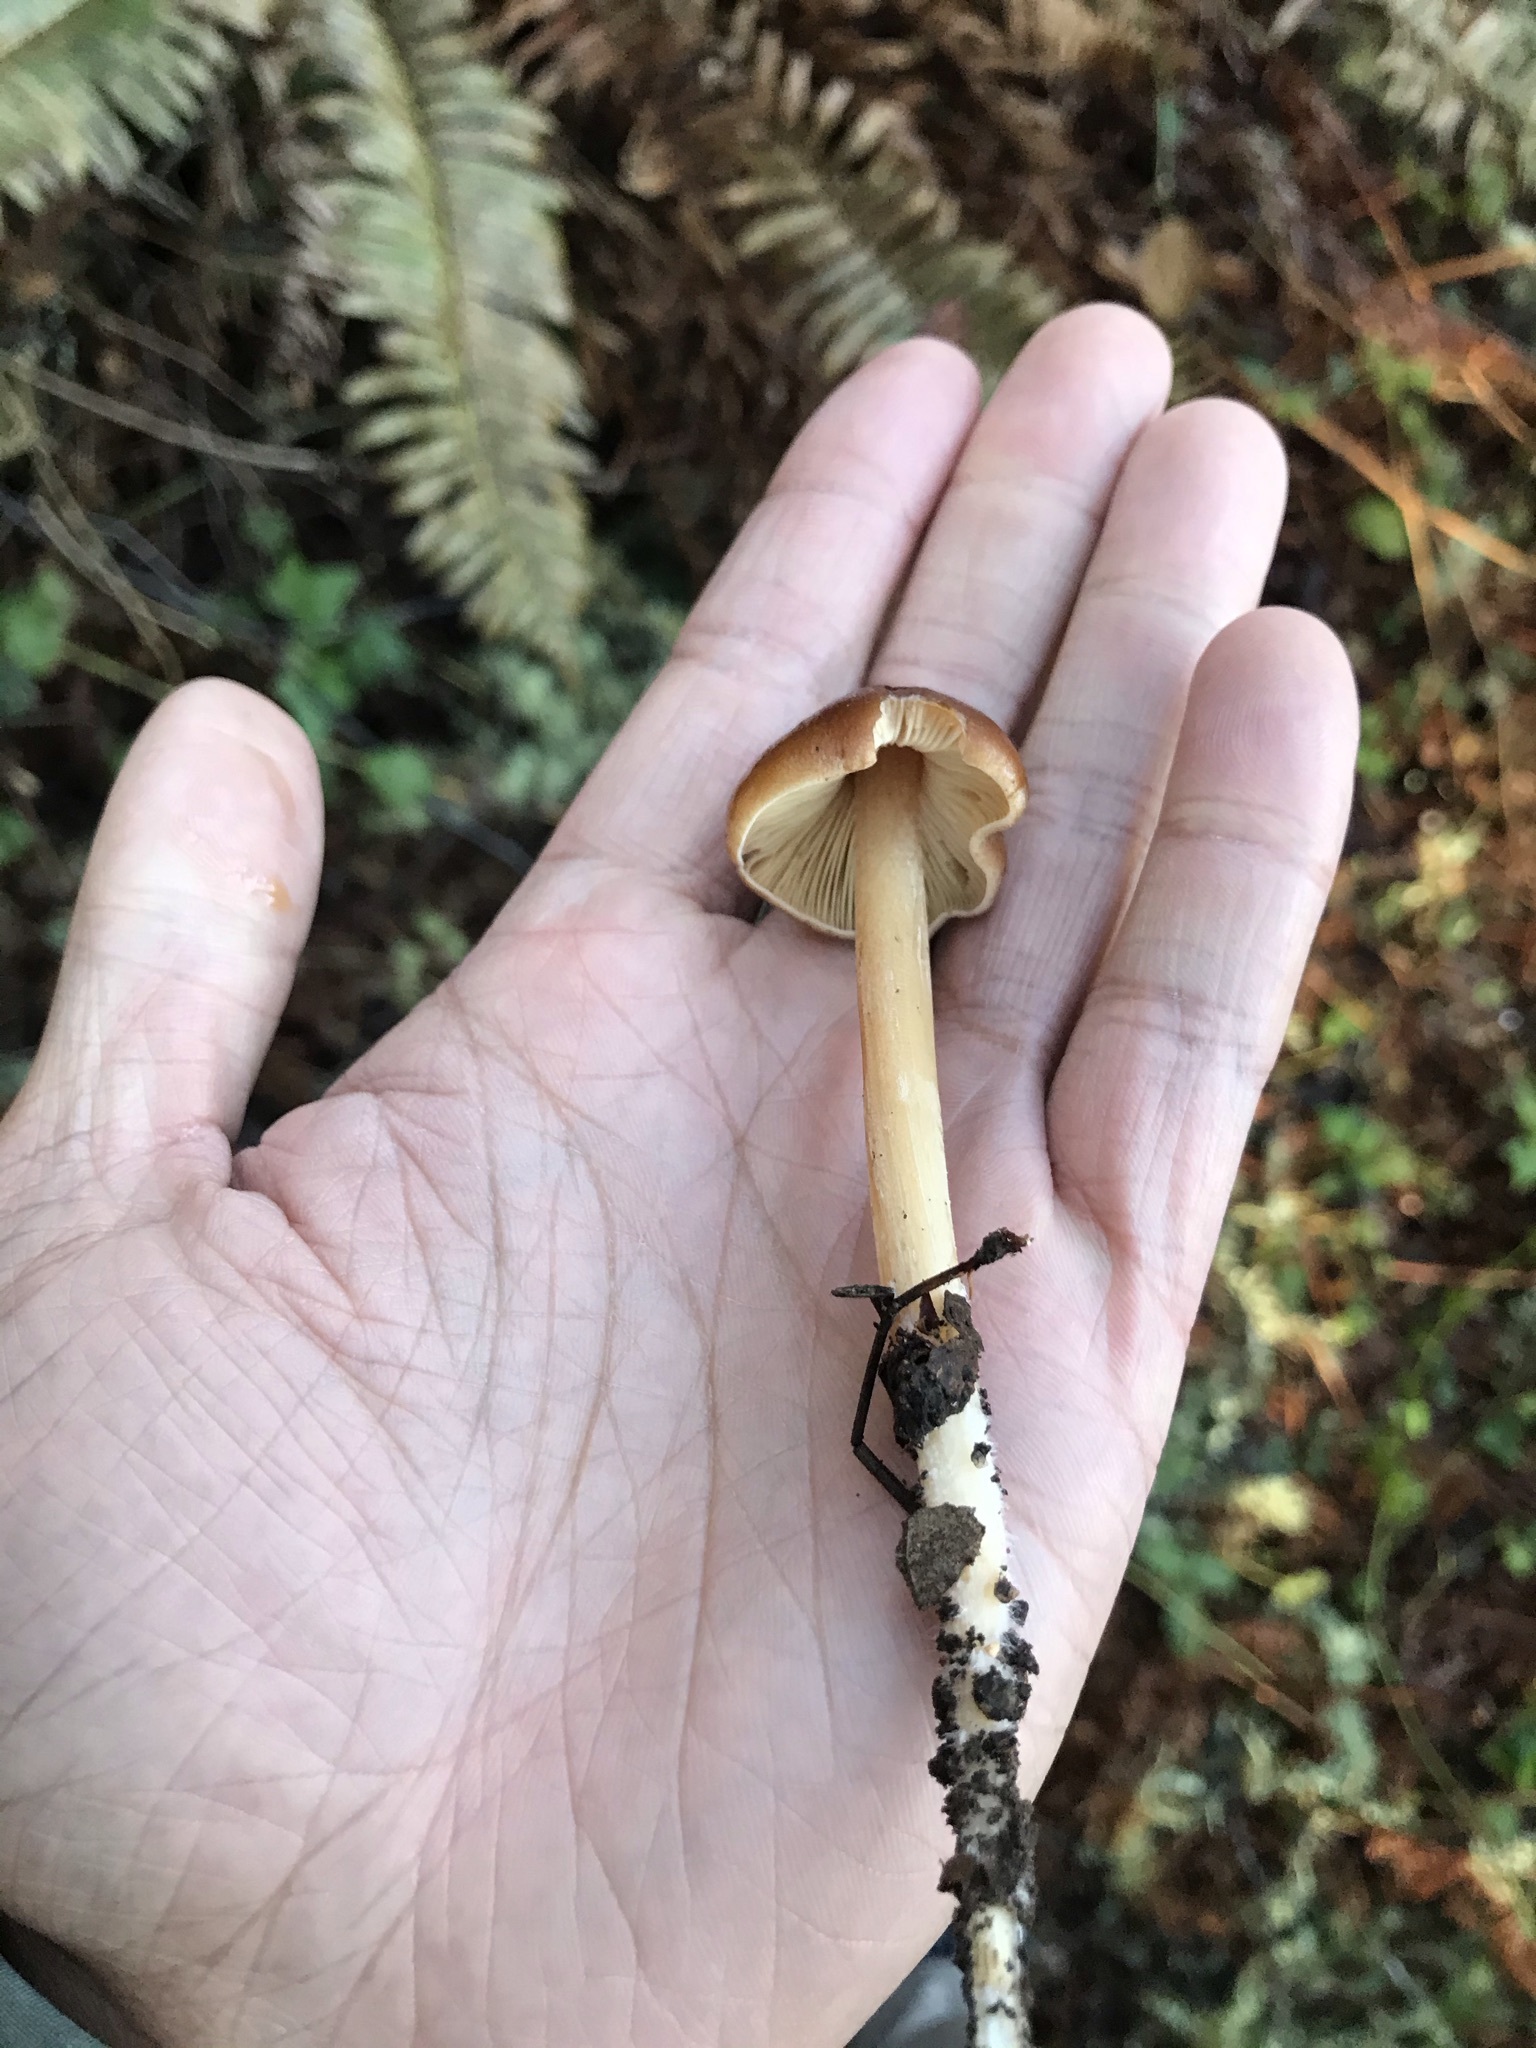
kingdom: Fungi
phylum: Basidiomycota
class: Agaricomycetes
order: Agaricales
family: Tricholomataceae
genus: Caulorhiza
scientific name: Caulorhiza umbonata
